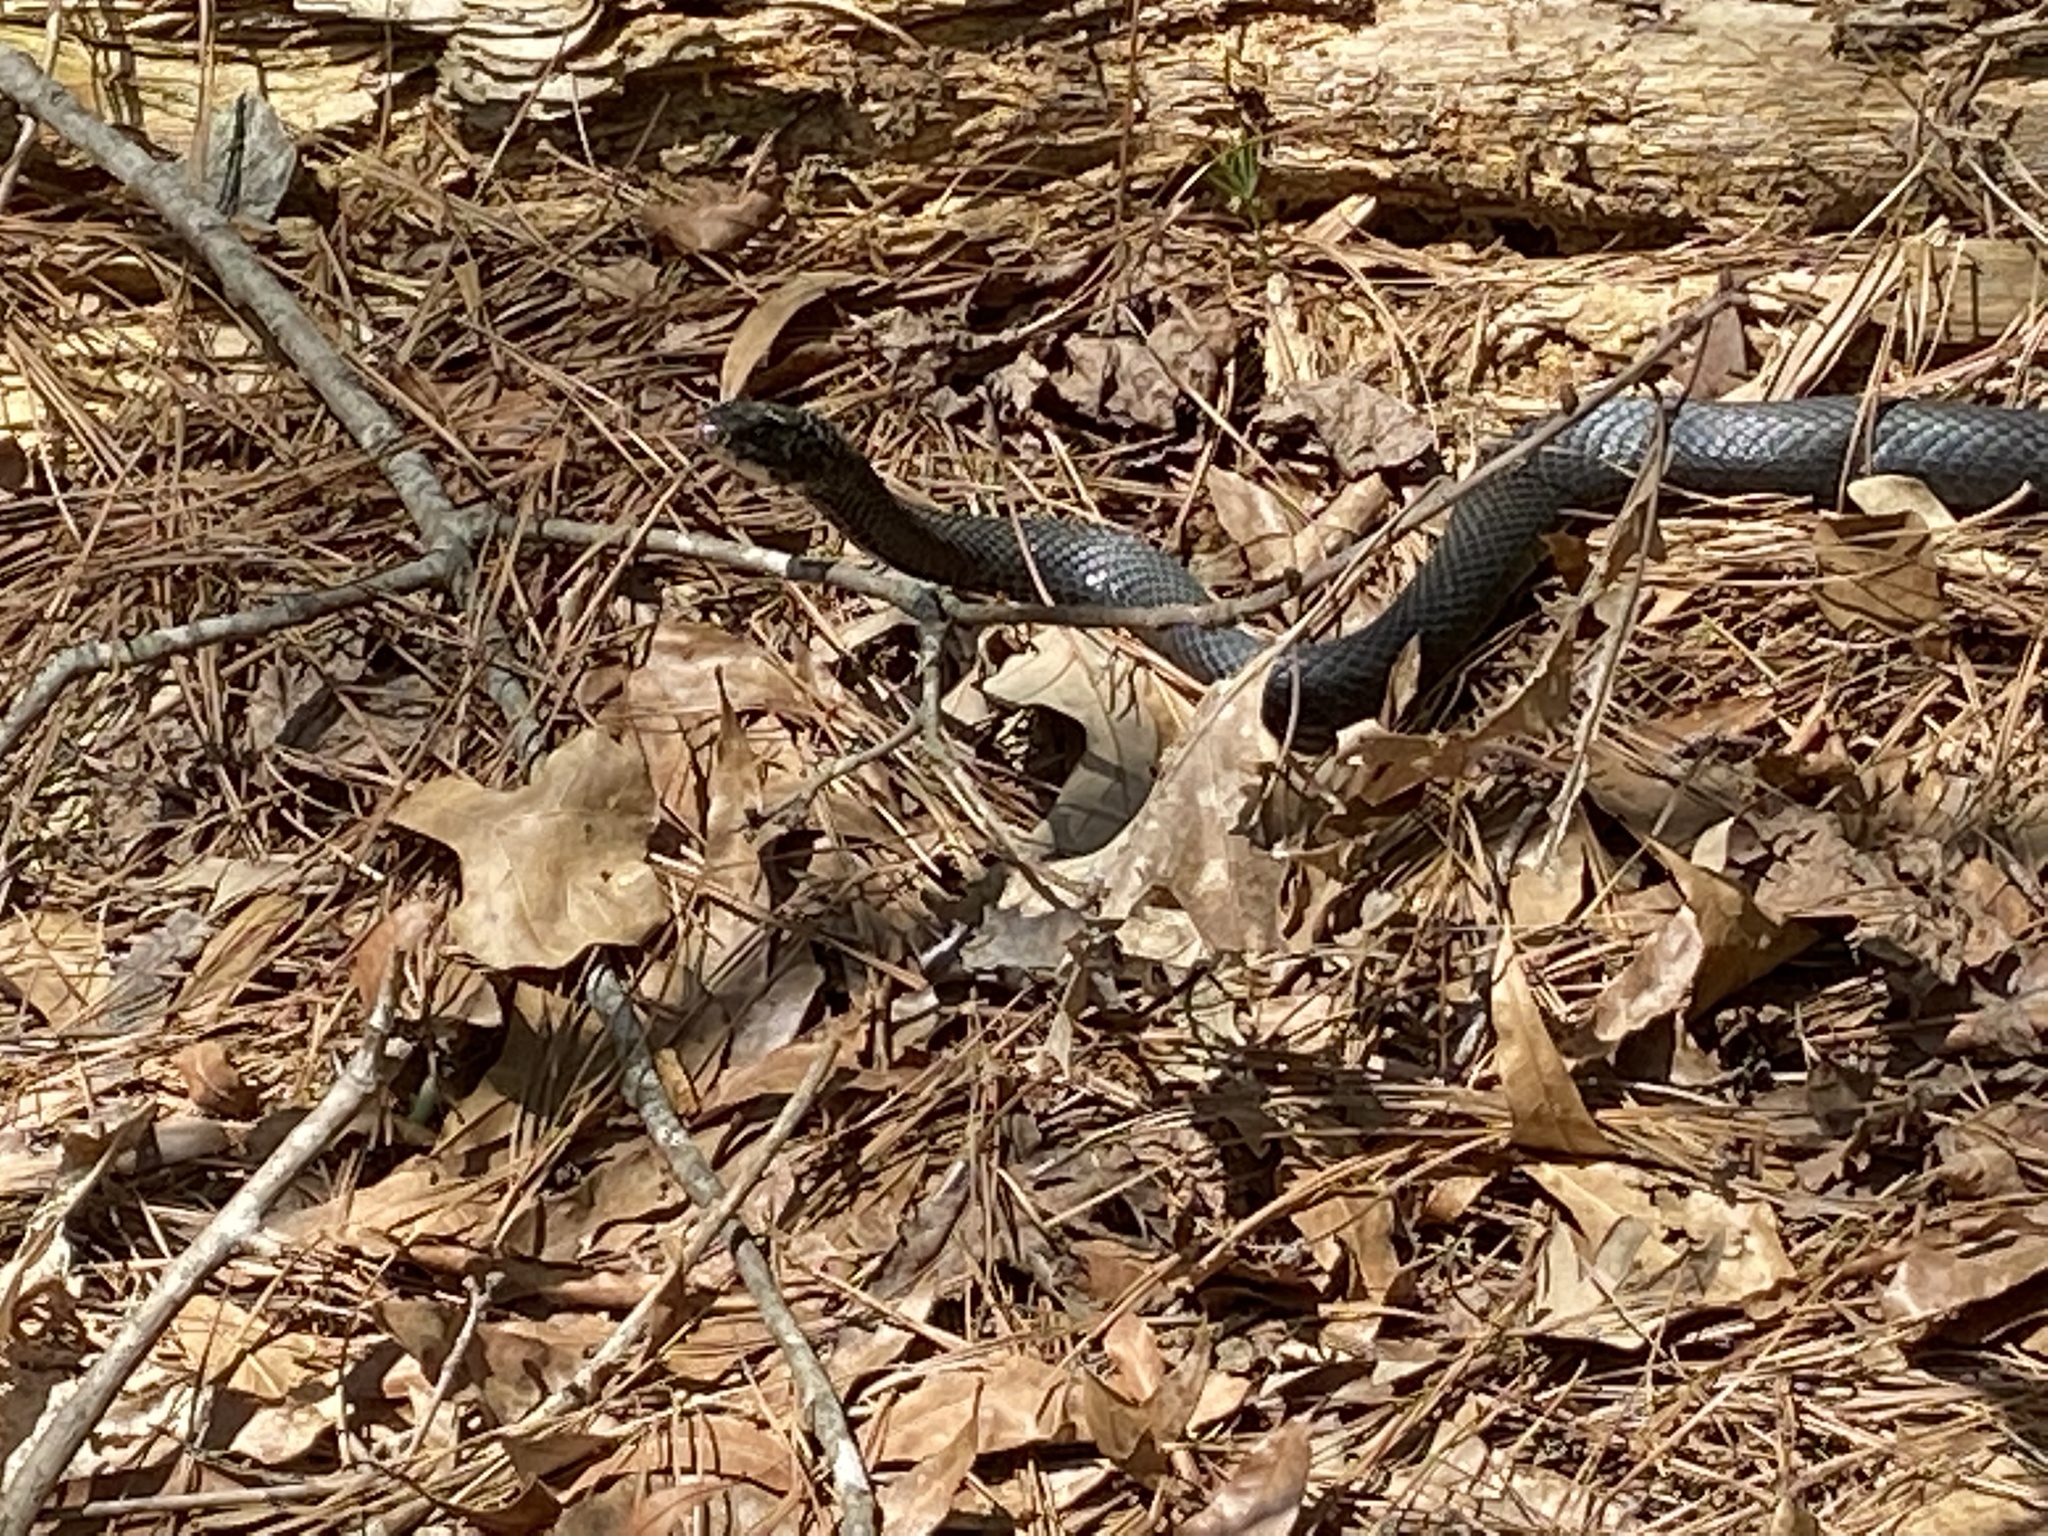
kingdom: Animalia
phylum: Chordata
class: Squamata
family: Colubridae
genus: Coluber
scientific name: Coluber constrictor
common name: Eastern racer
